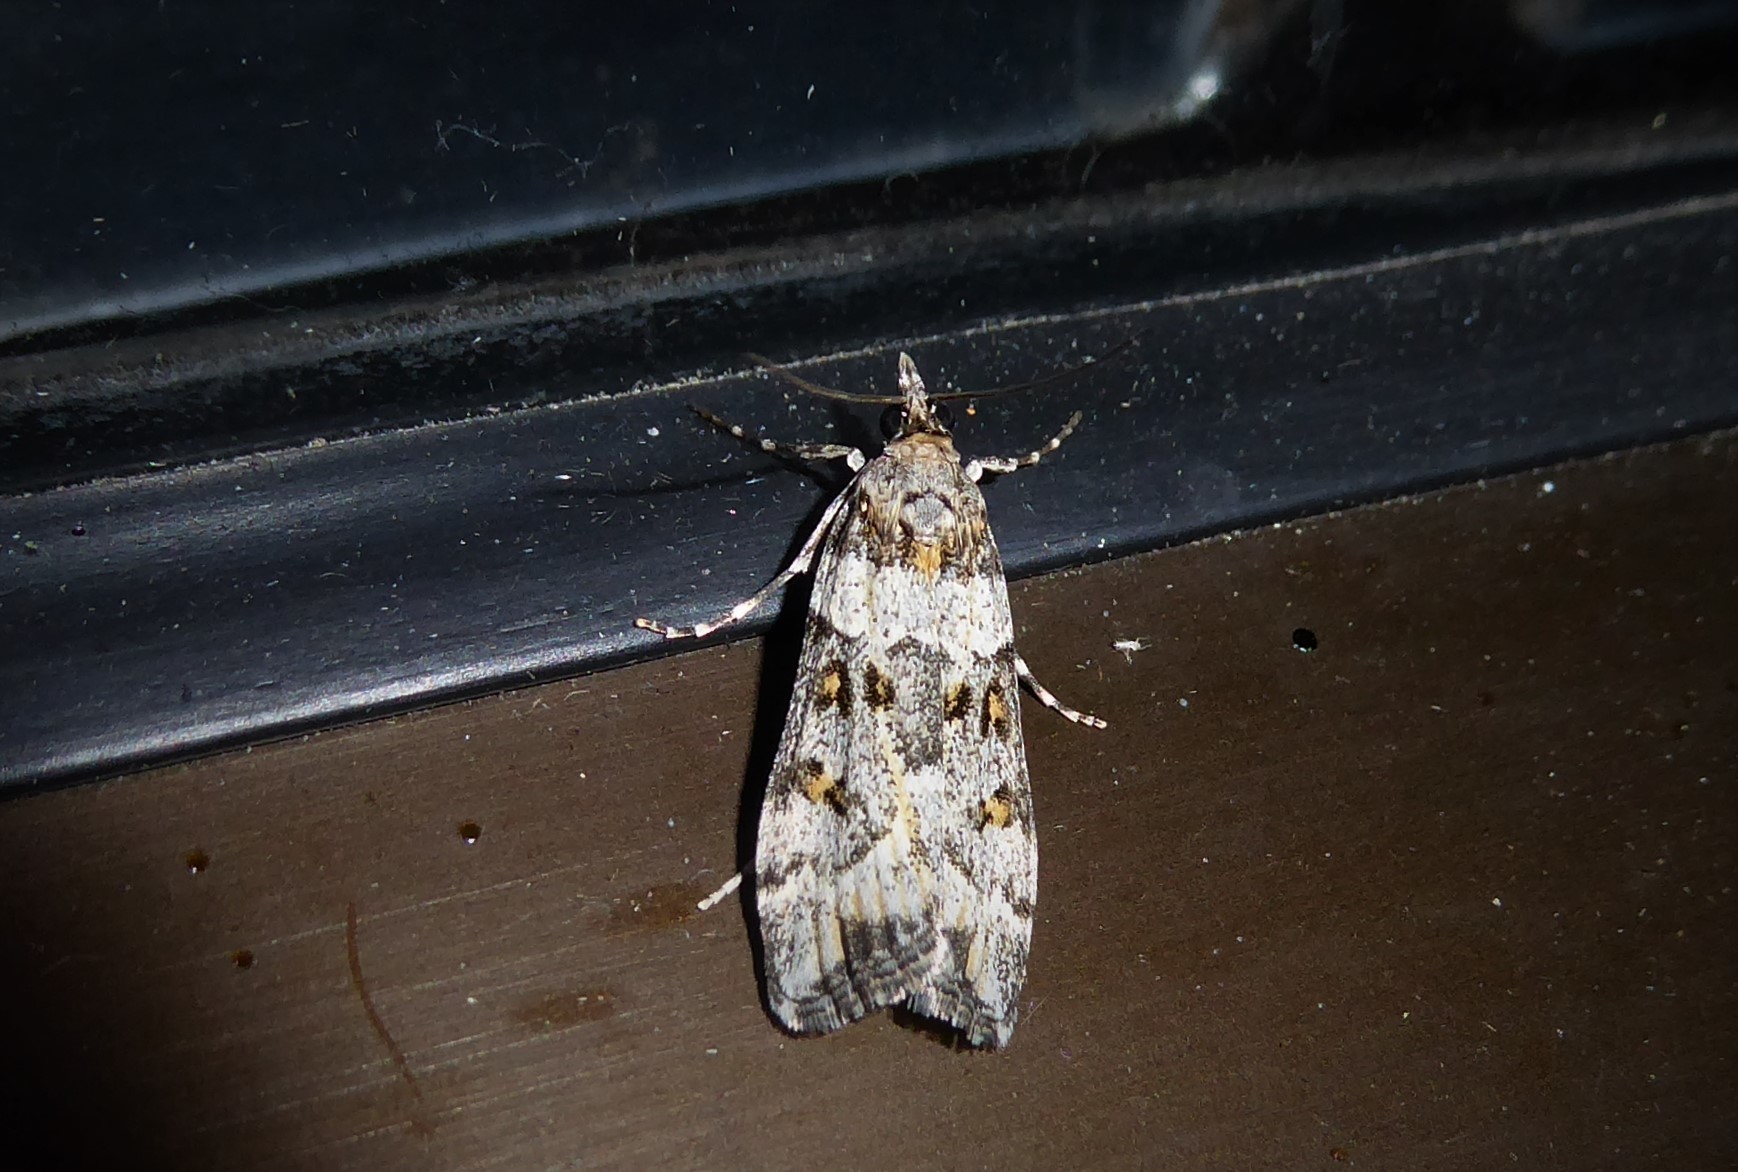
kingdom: Animalia
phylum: Arthropoda
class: Insecta
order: Lepidoptera
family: Crambidae
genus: Eudonia
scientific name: Eudonia diphtheralis
